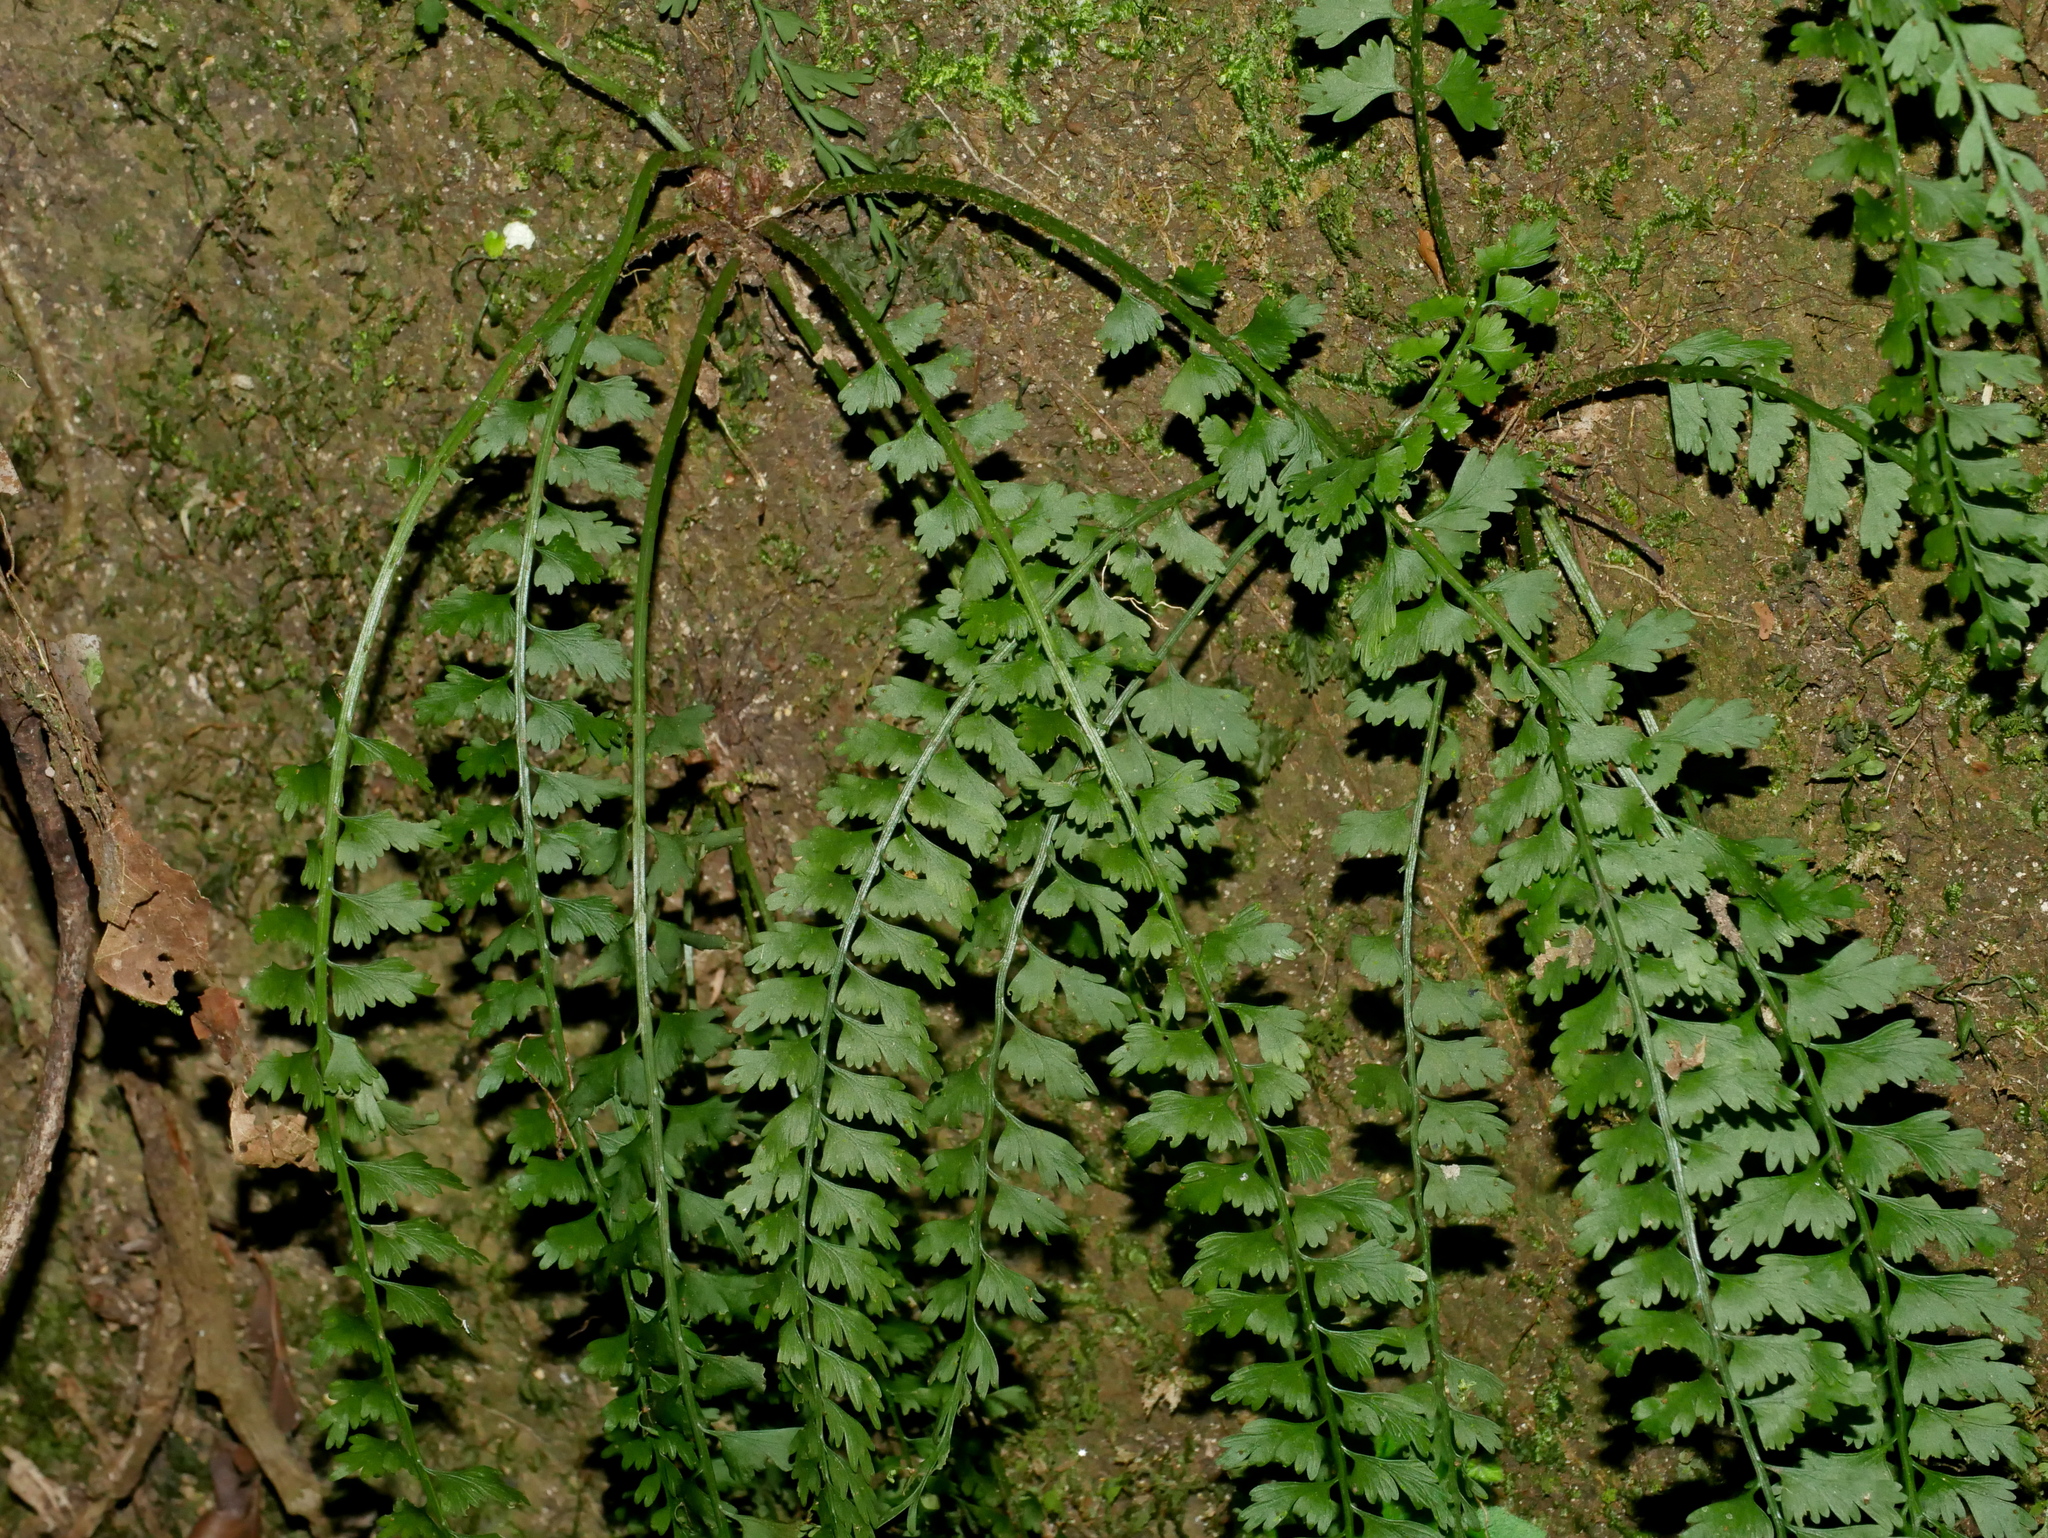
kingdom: Plantae
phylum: Tracheophyta
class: Polypodiopsida
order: Polypodiales
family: Aspleniaceae
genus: Asplenium
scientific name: Asplenium gueinzianum
